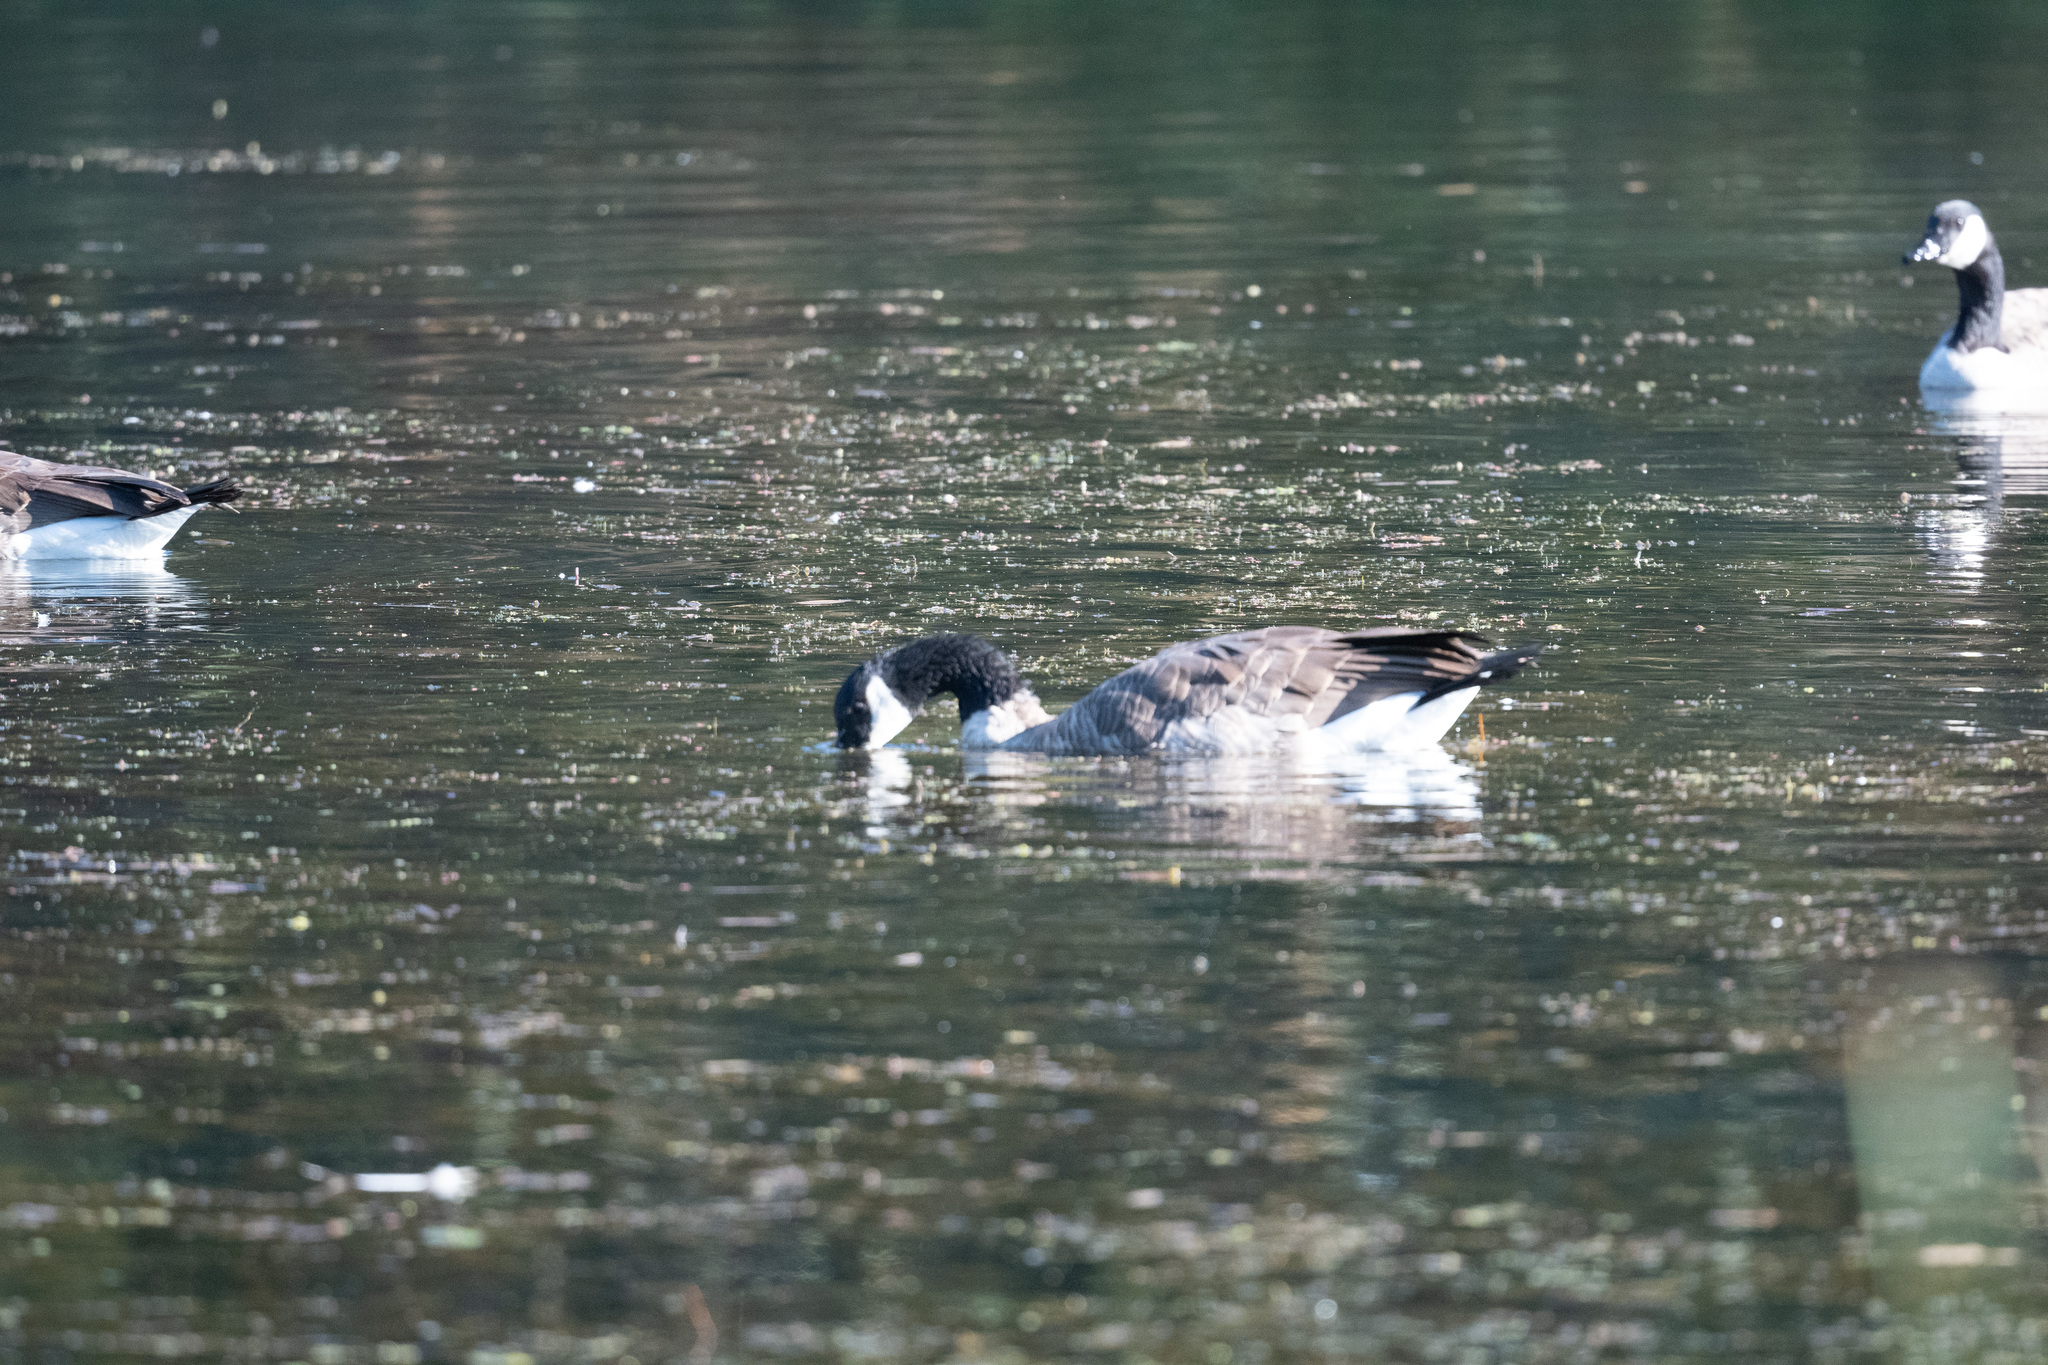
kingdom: Animalia
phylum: Chordata
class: Aves
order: Anseriformes
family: Anatidae
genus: Branta
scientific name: Branta canadensis
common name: Canada goose
